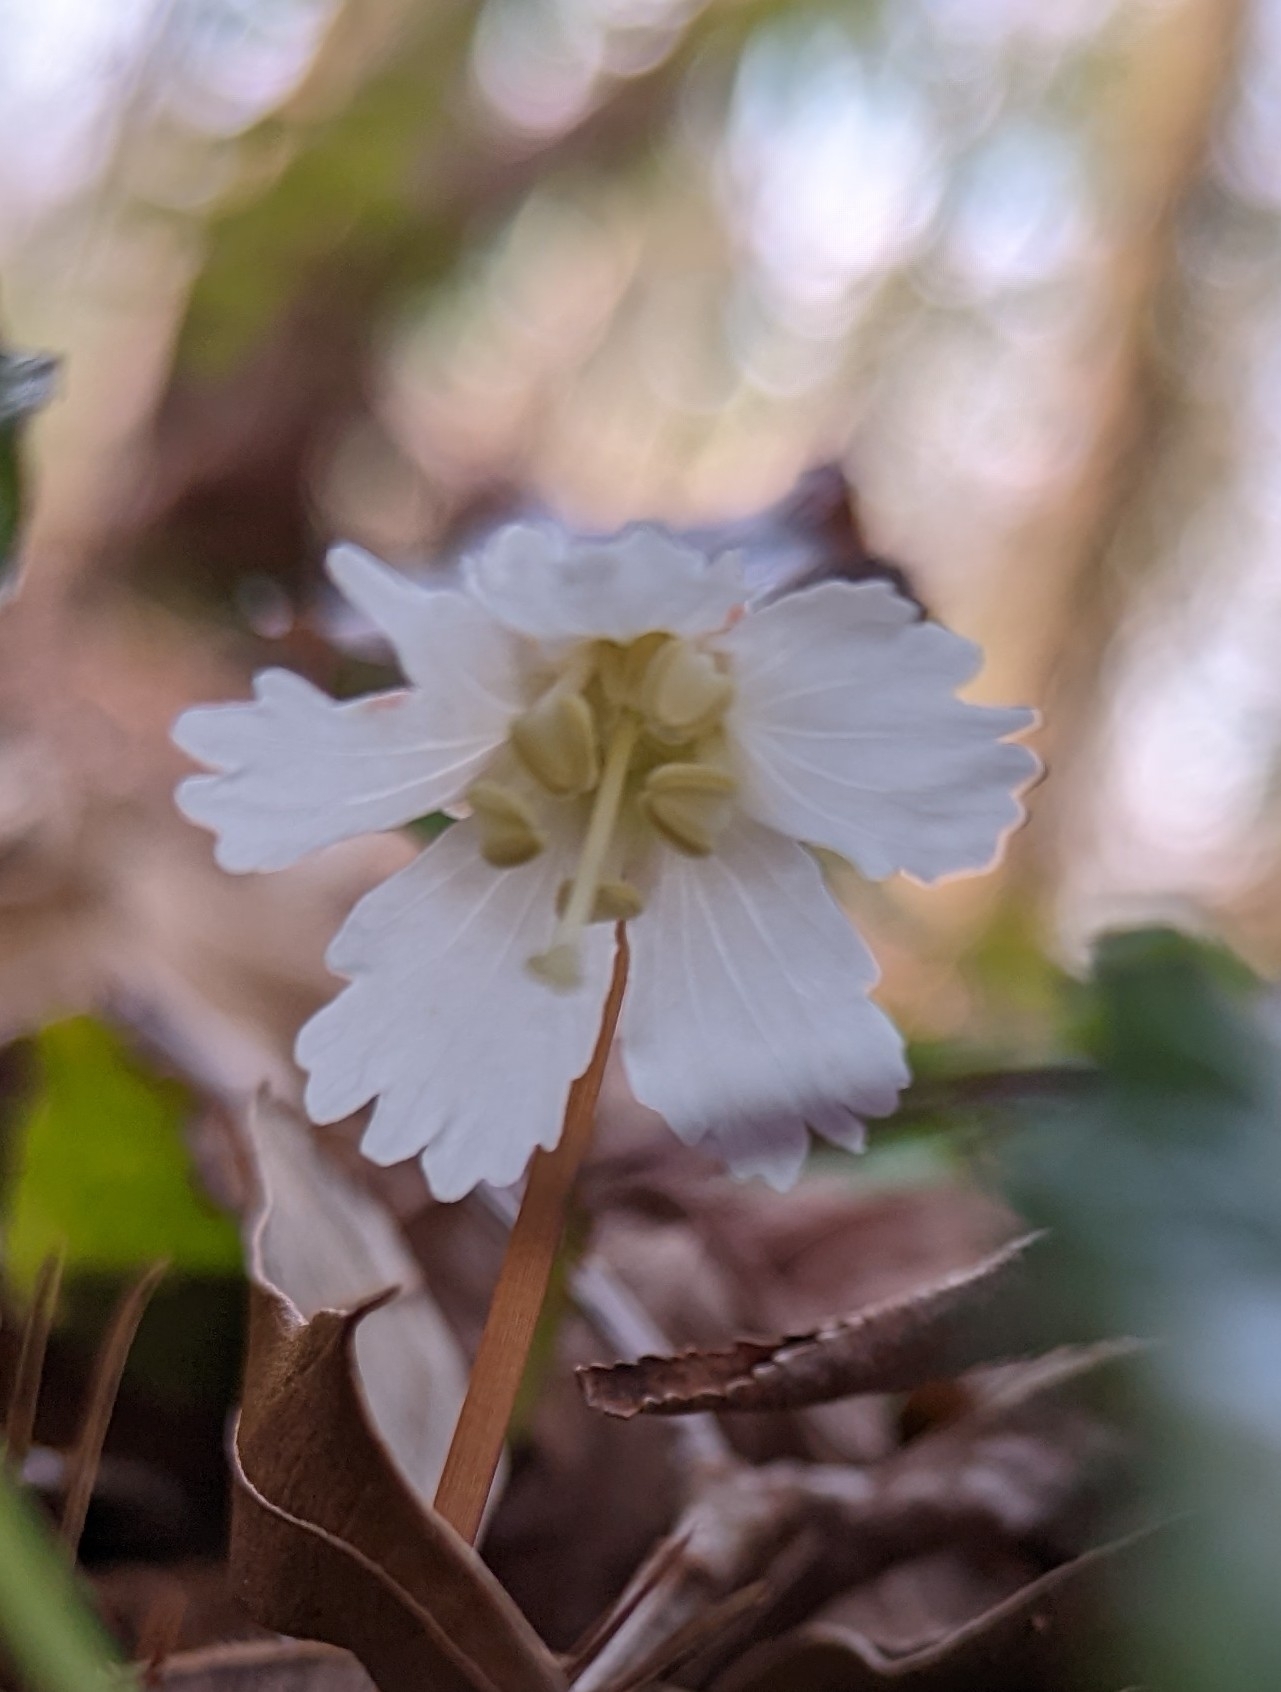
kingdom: Plantae
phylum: Tracheophyta
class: Magnoliopsida
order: Ericales
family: Diapensiaceae
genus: Shortia
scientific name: Shortia galacifolia
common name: Shortia
